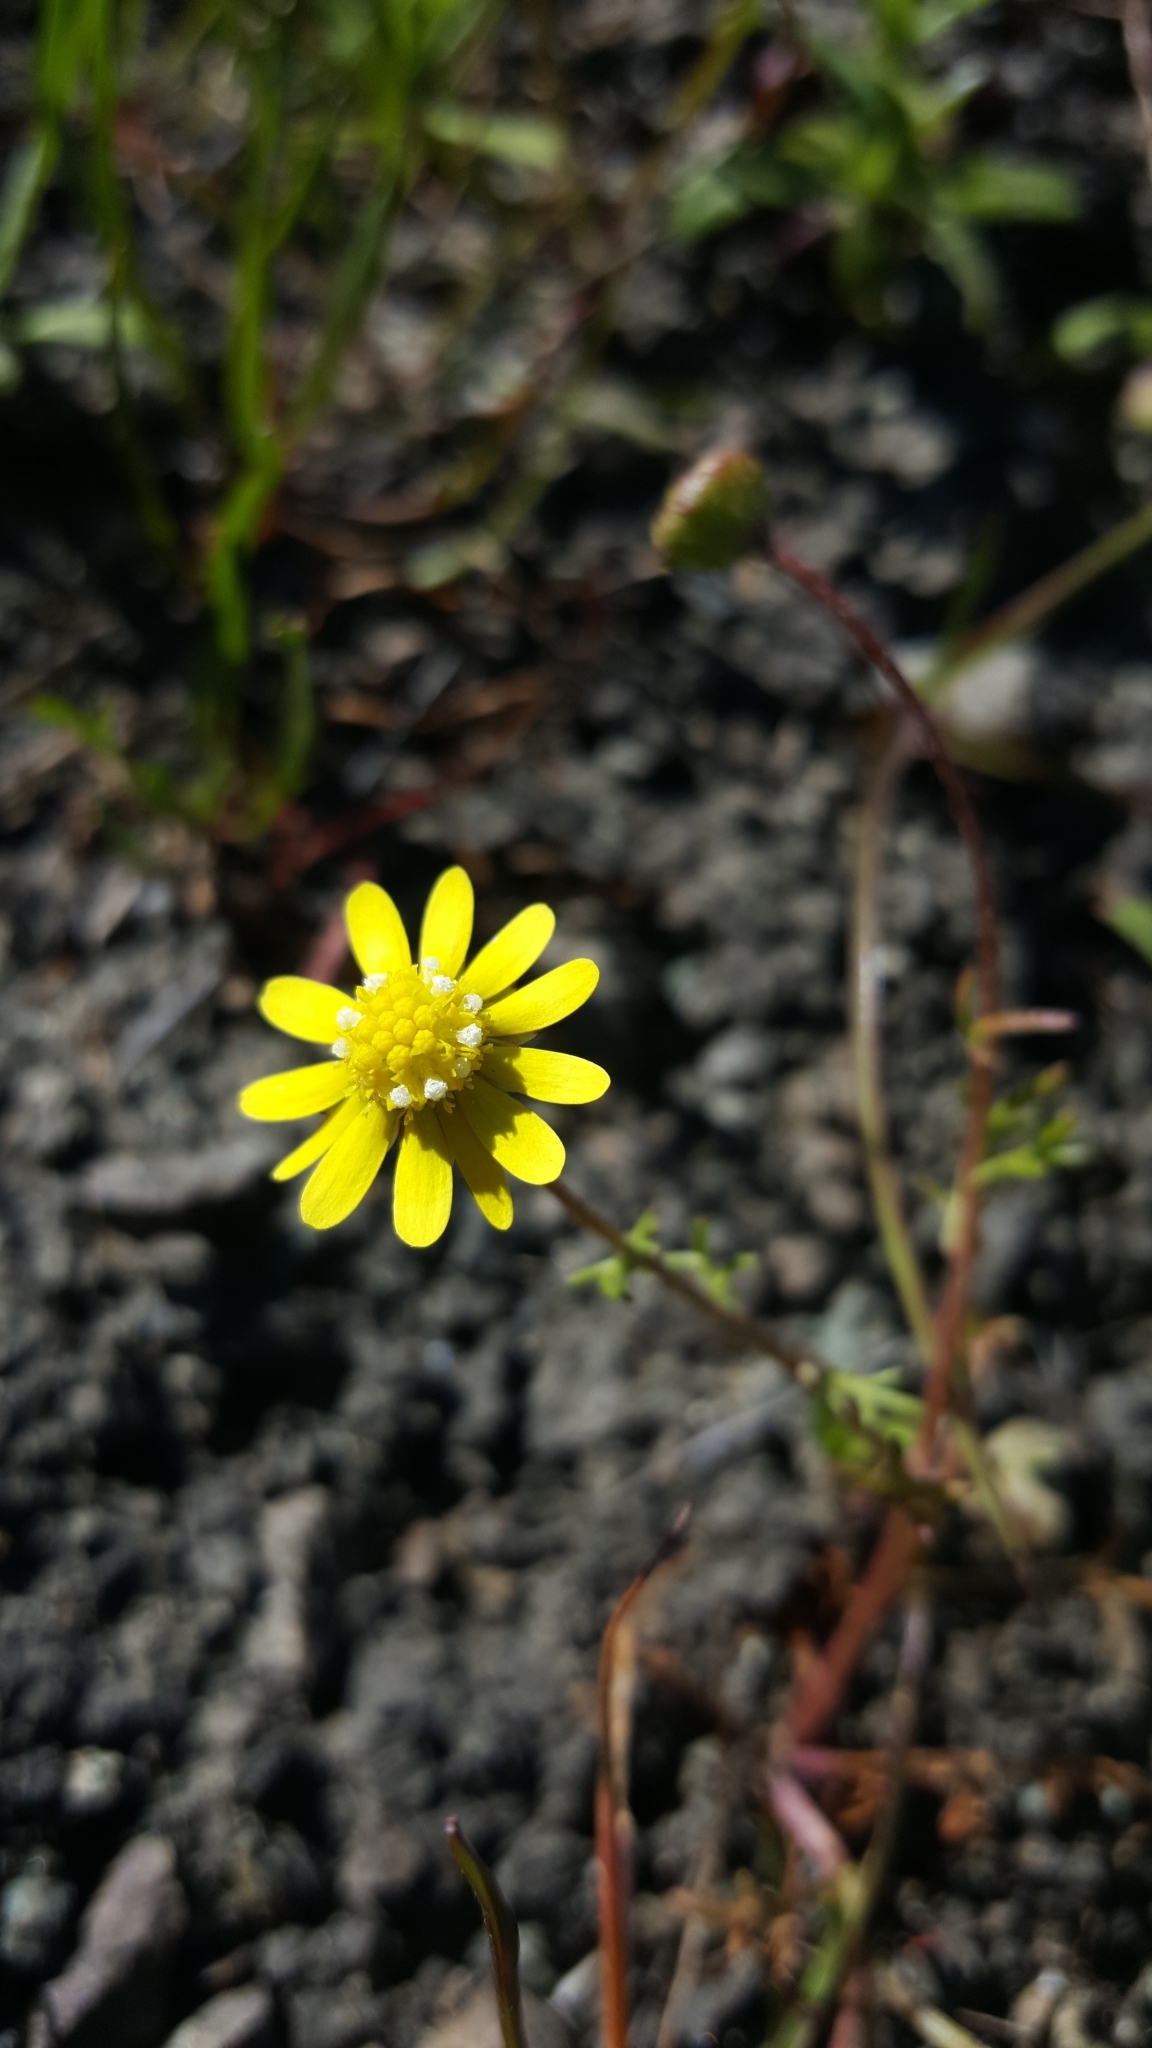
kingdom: Plantae
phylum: Tracheophyta
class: Magnoliopsida
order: Asterales
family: Asteraceae
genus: Blennosperma
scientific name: Blennosperma nanum
